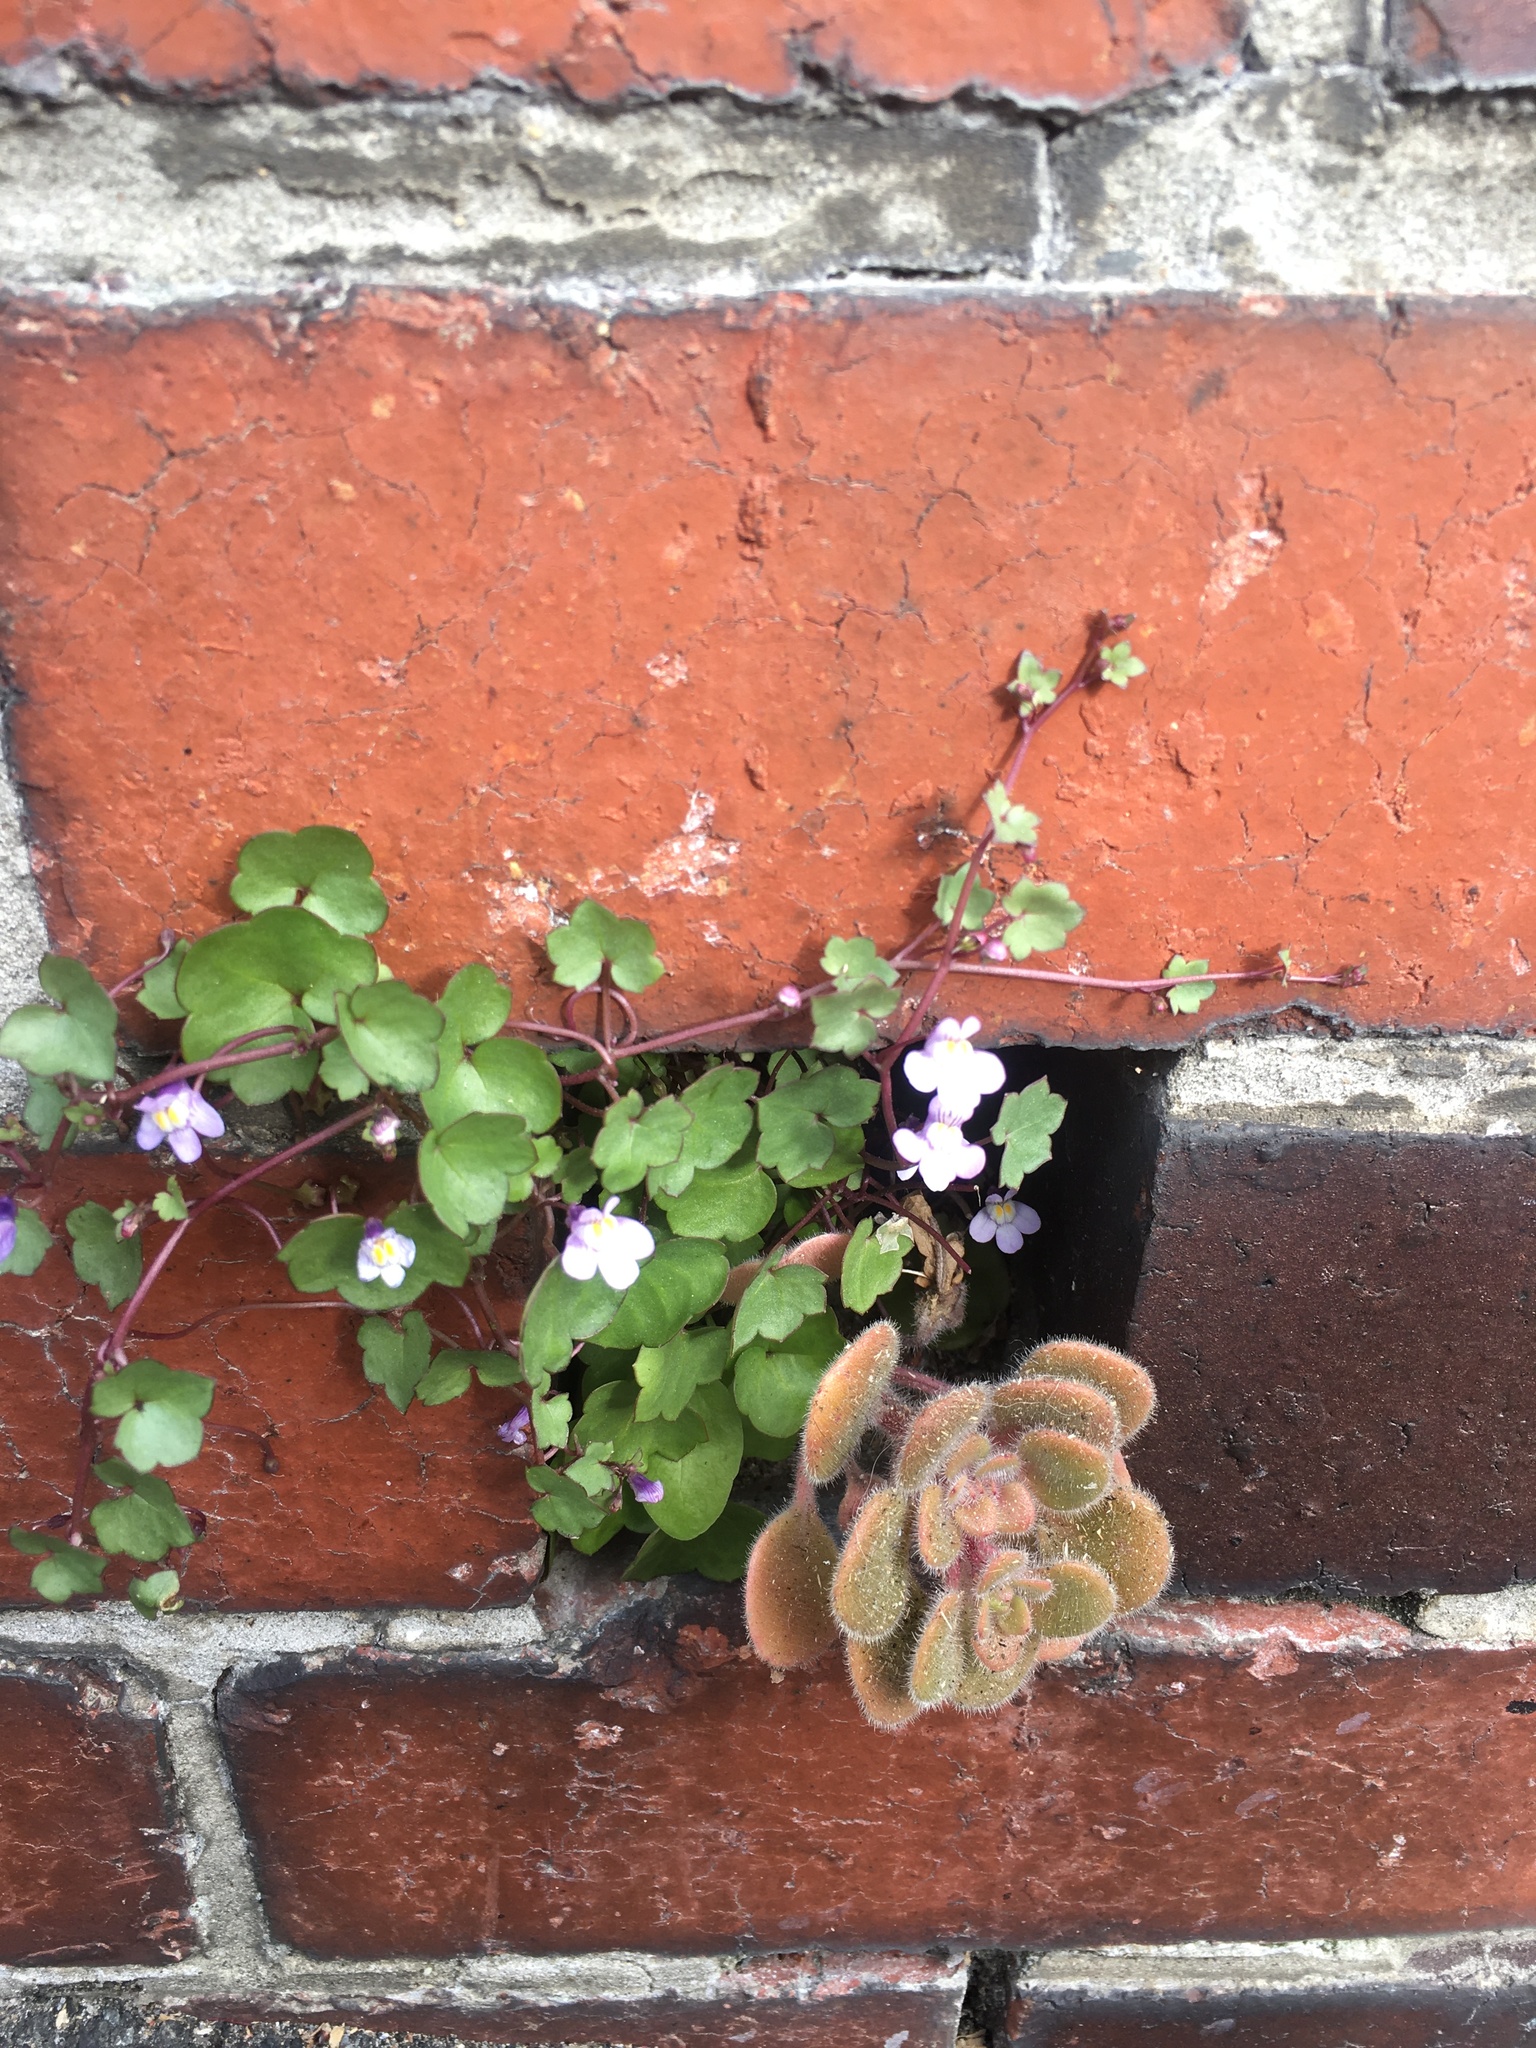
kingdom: Plantae
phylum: Tracheophyta
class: Magnoliopsida
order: Saxifragales
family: Crassulaceae
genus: Aichryson
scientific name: Aichryson laxum
